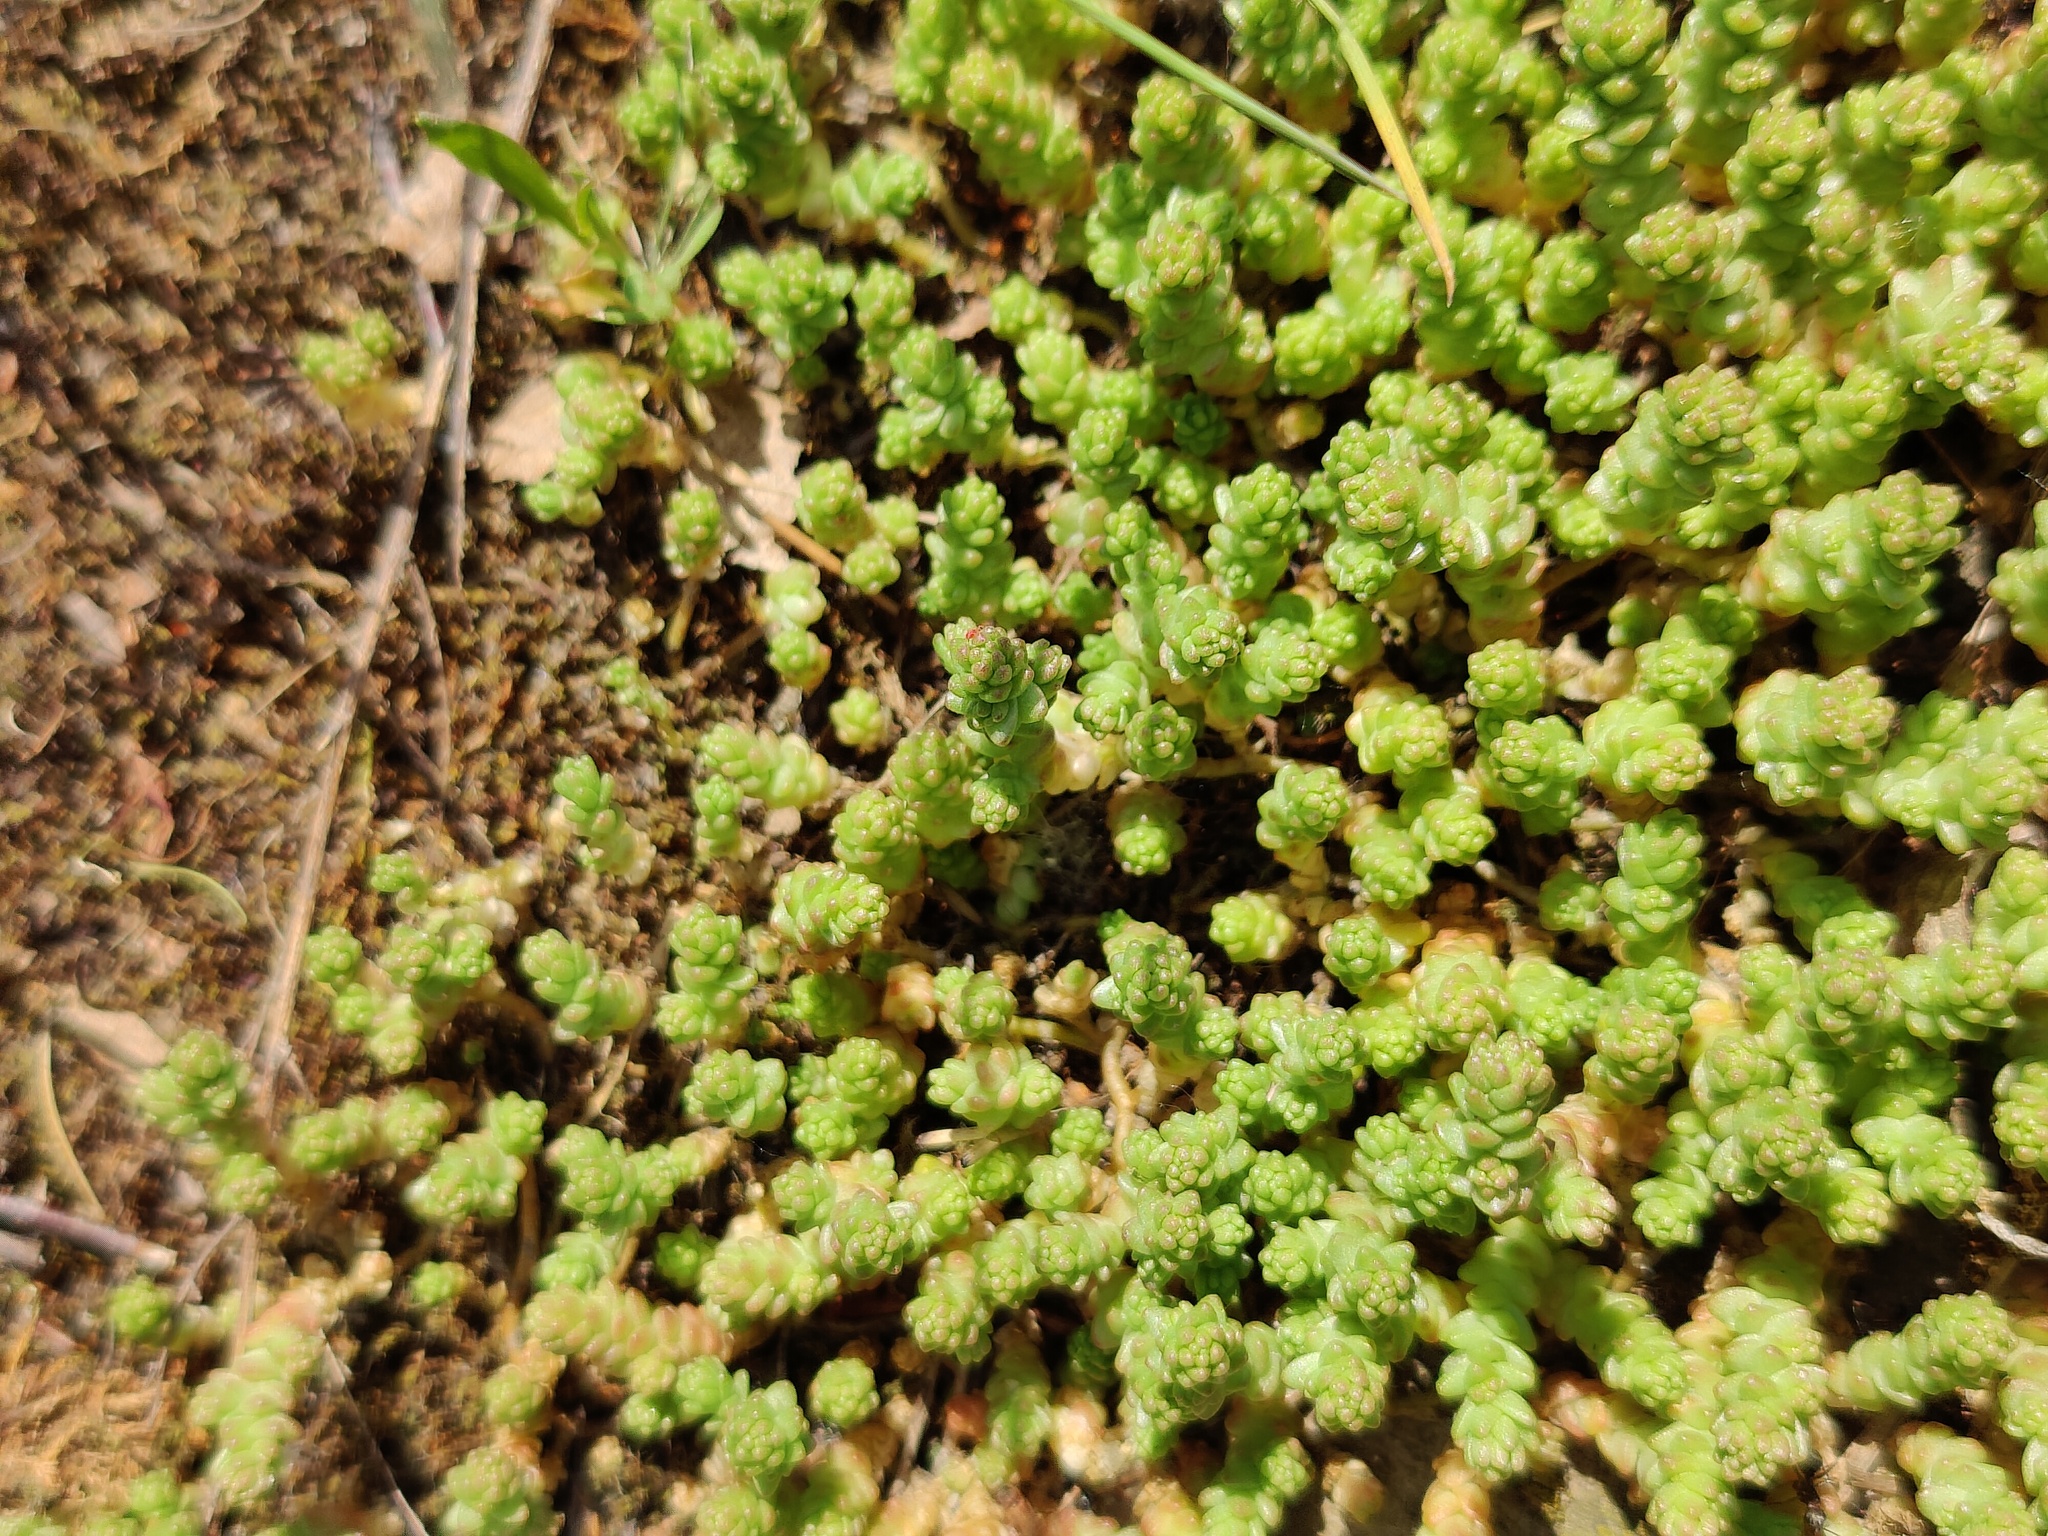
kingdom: Plantae
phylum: Tracheophyta
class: Magnoliopsida
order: Saxifragales
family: Crassulaceae
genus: Sedum
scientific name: Sedum acre
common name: Biting stonecrop
